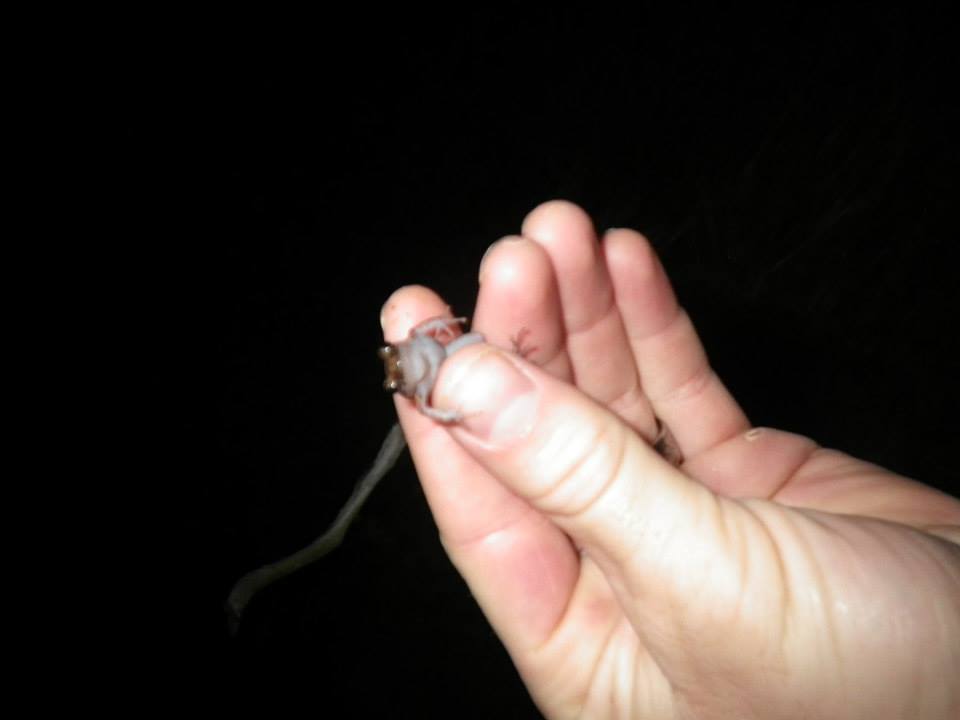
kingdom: Animalia
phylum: Chordata
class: Amphibia
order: Anura
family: Eleutherodactylidae
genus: Eleutherodactylus
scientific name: Eleutherodactylus planirostris
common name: Greenhouse frog
